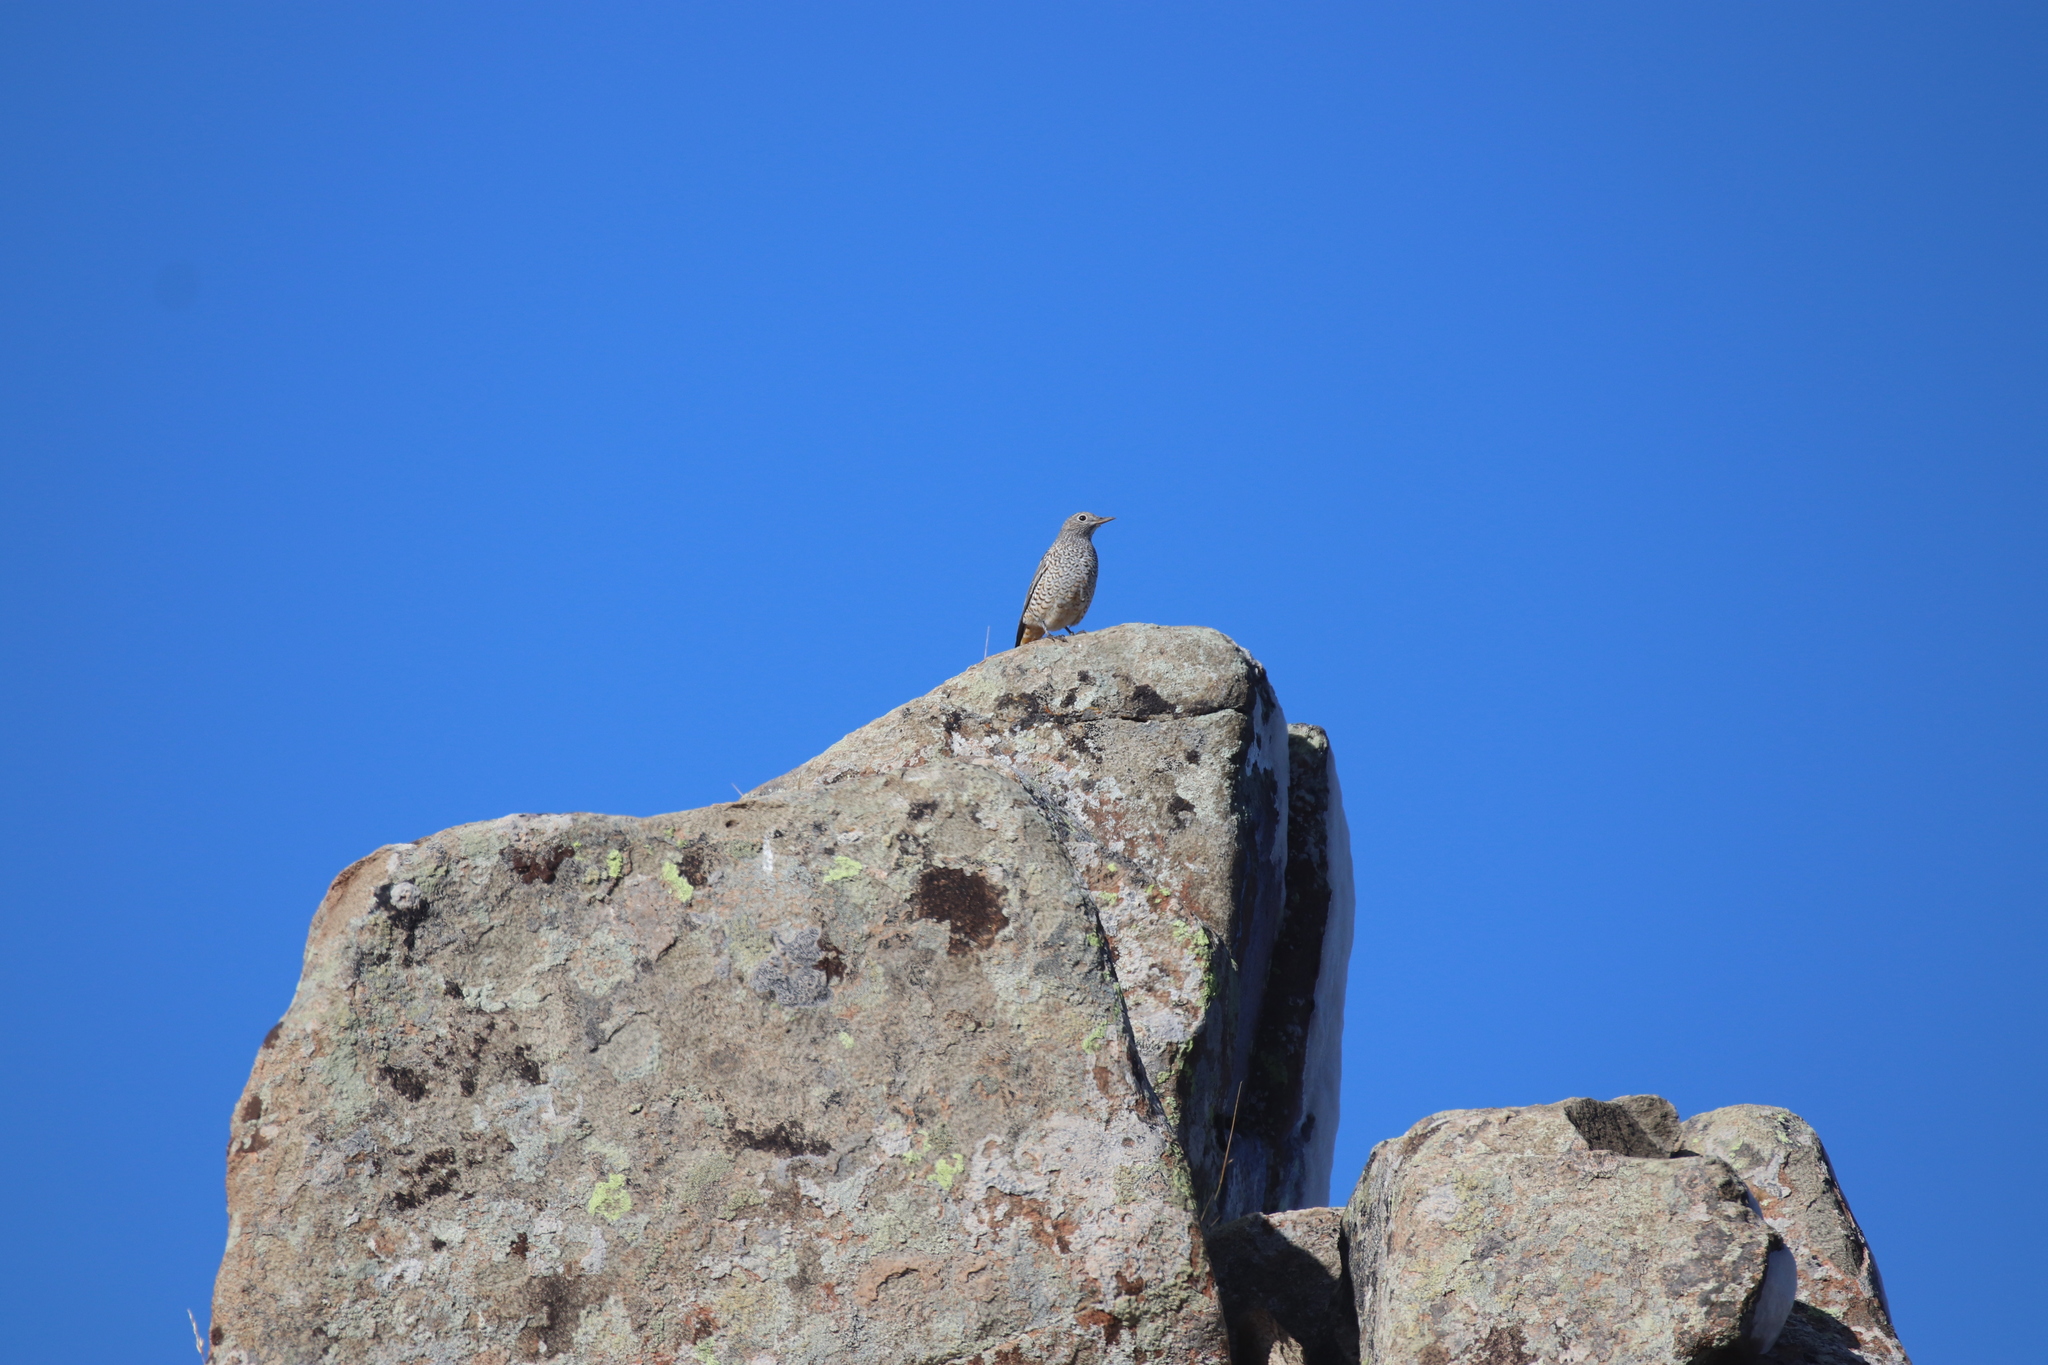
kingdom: Animalia
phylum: Chordata
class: Aves
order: Passeriformes
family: Muscicapidae
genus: Monticola
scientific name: Monticola saxatilis
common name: Rufous-tailed rock thrush
